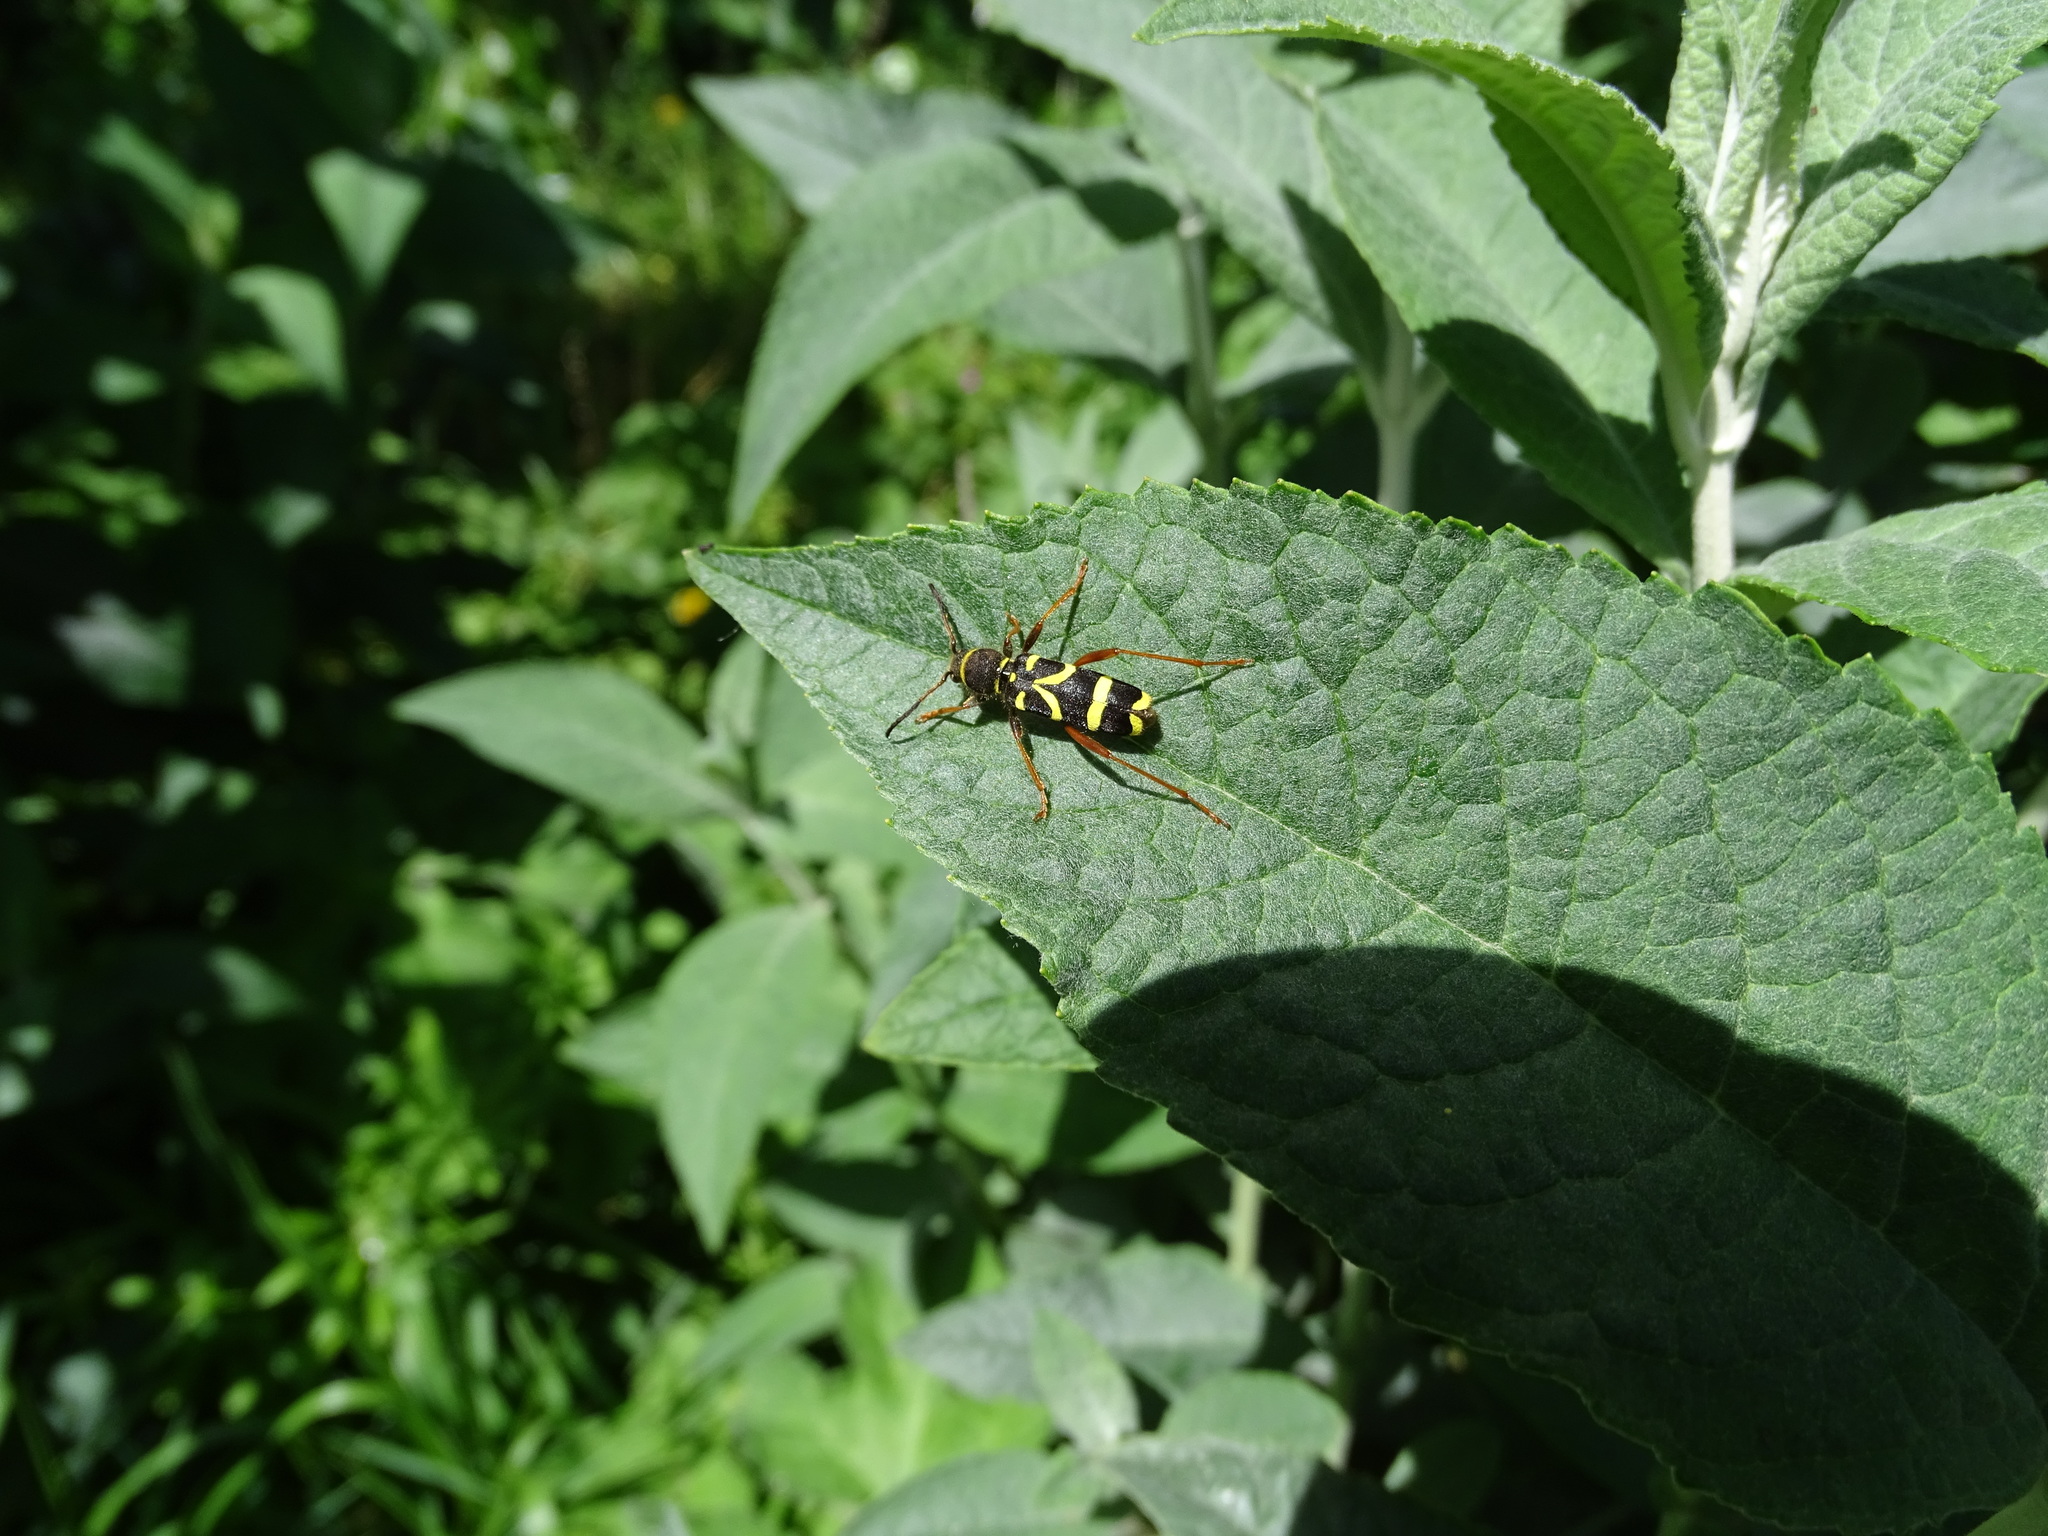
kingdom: Animalia
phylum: Arthropoda
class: Insecta
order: Coleoptera
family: Cerambycidae
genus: Clytus
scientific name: Clytus arietis
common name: Wasp beetle
